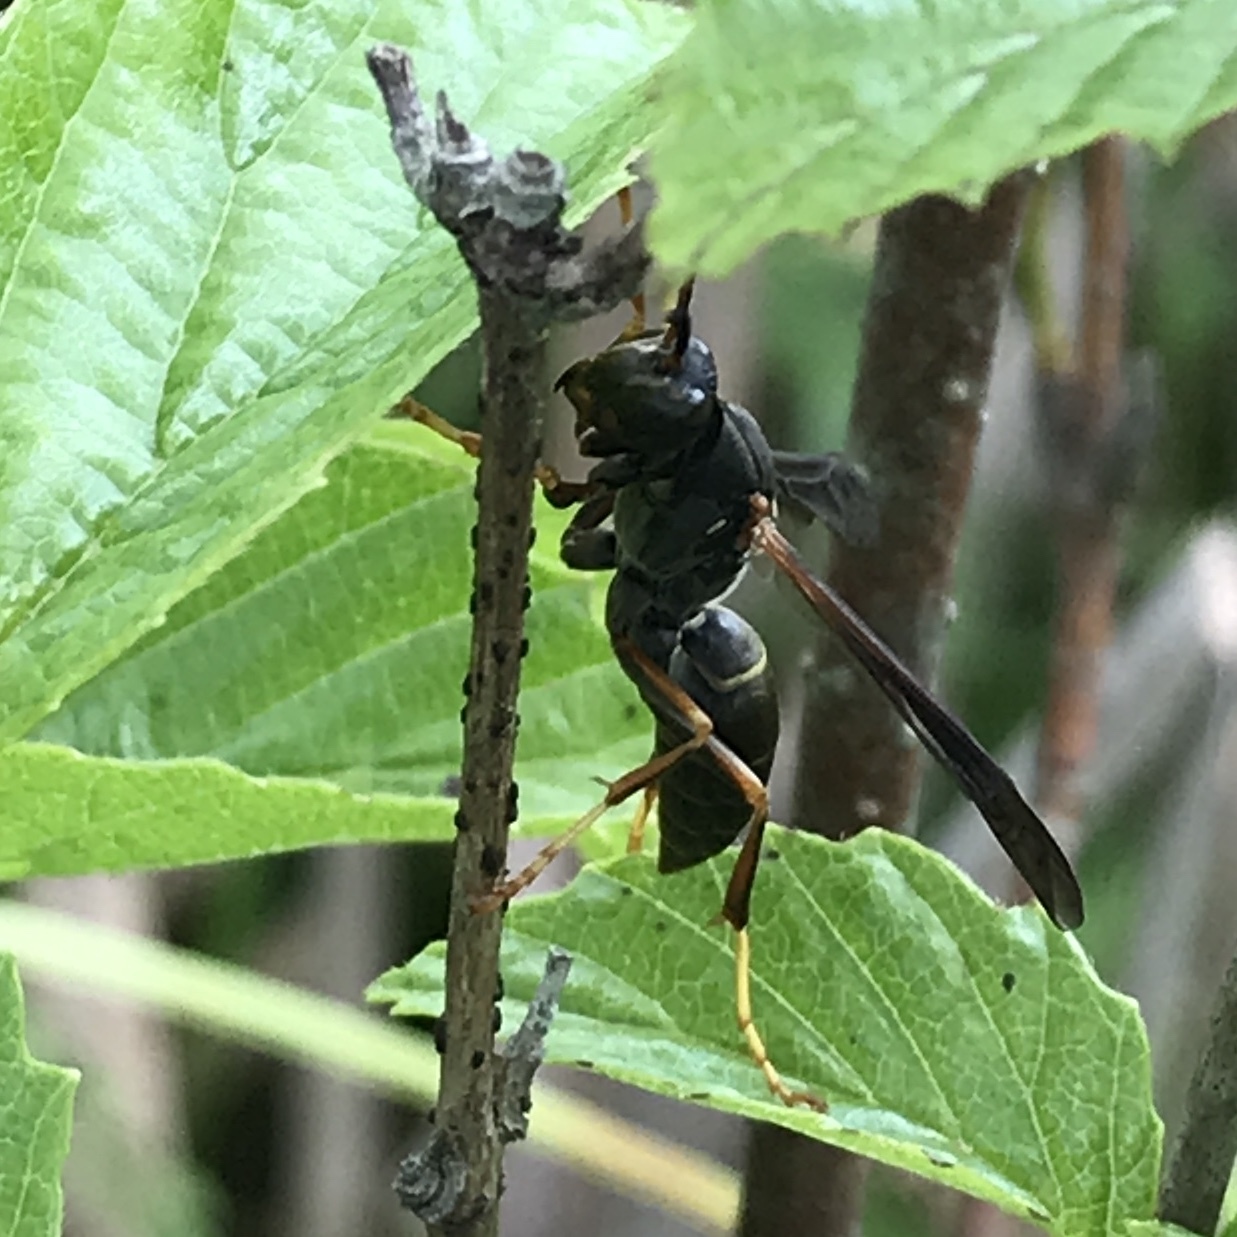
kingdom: Animalia
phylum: Arthropoda
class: Insecta
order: Hymenoptera
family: Eumenidae
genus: Polistes
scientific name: Polistes fuscatus
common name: Dark paper wasp
